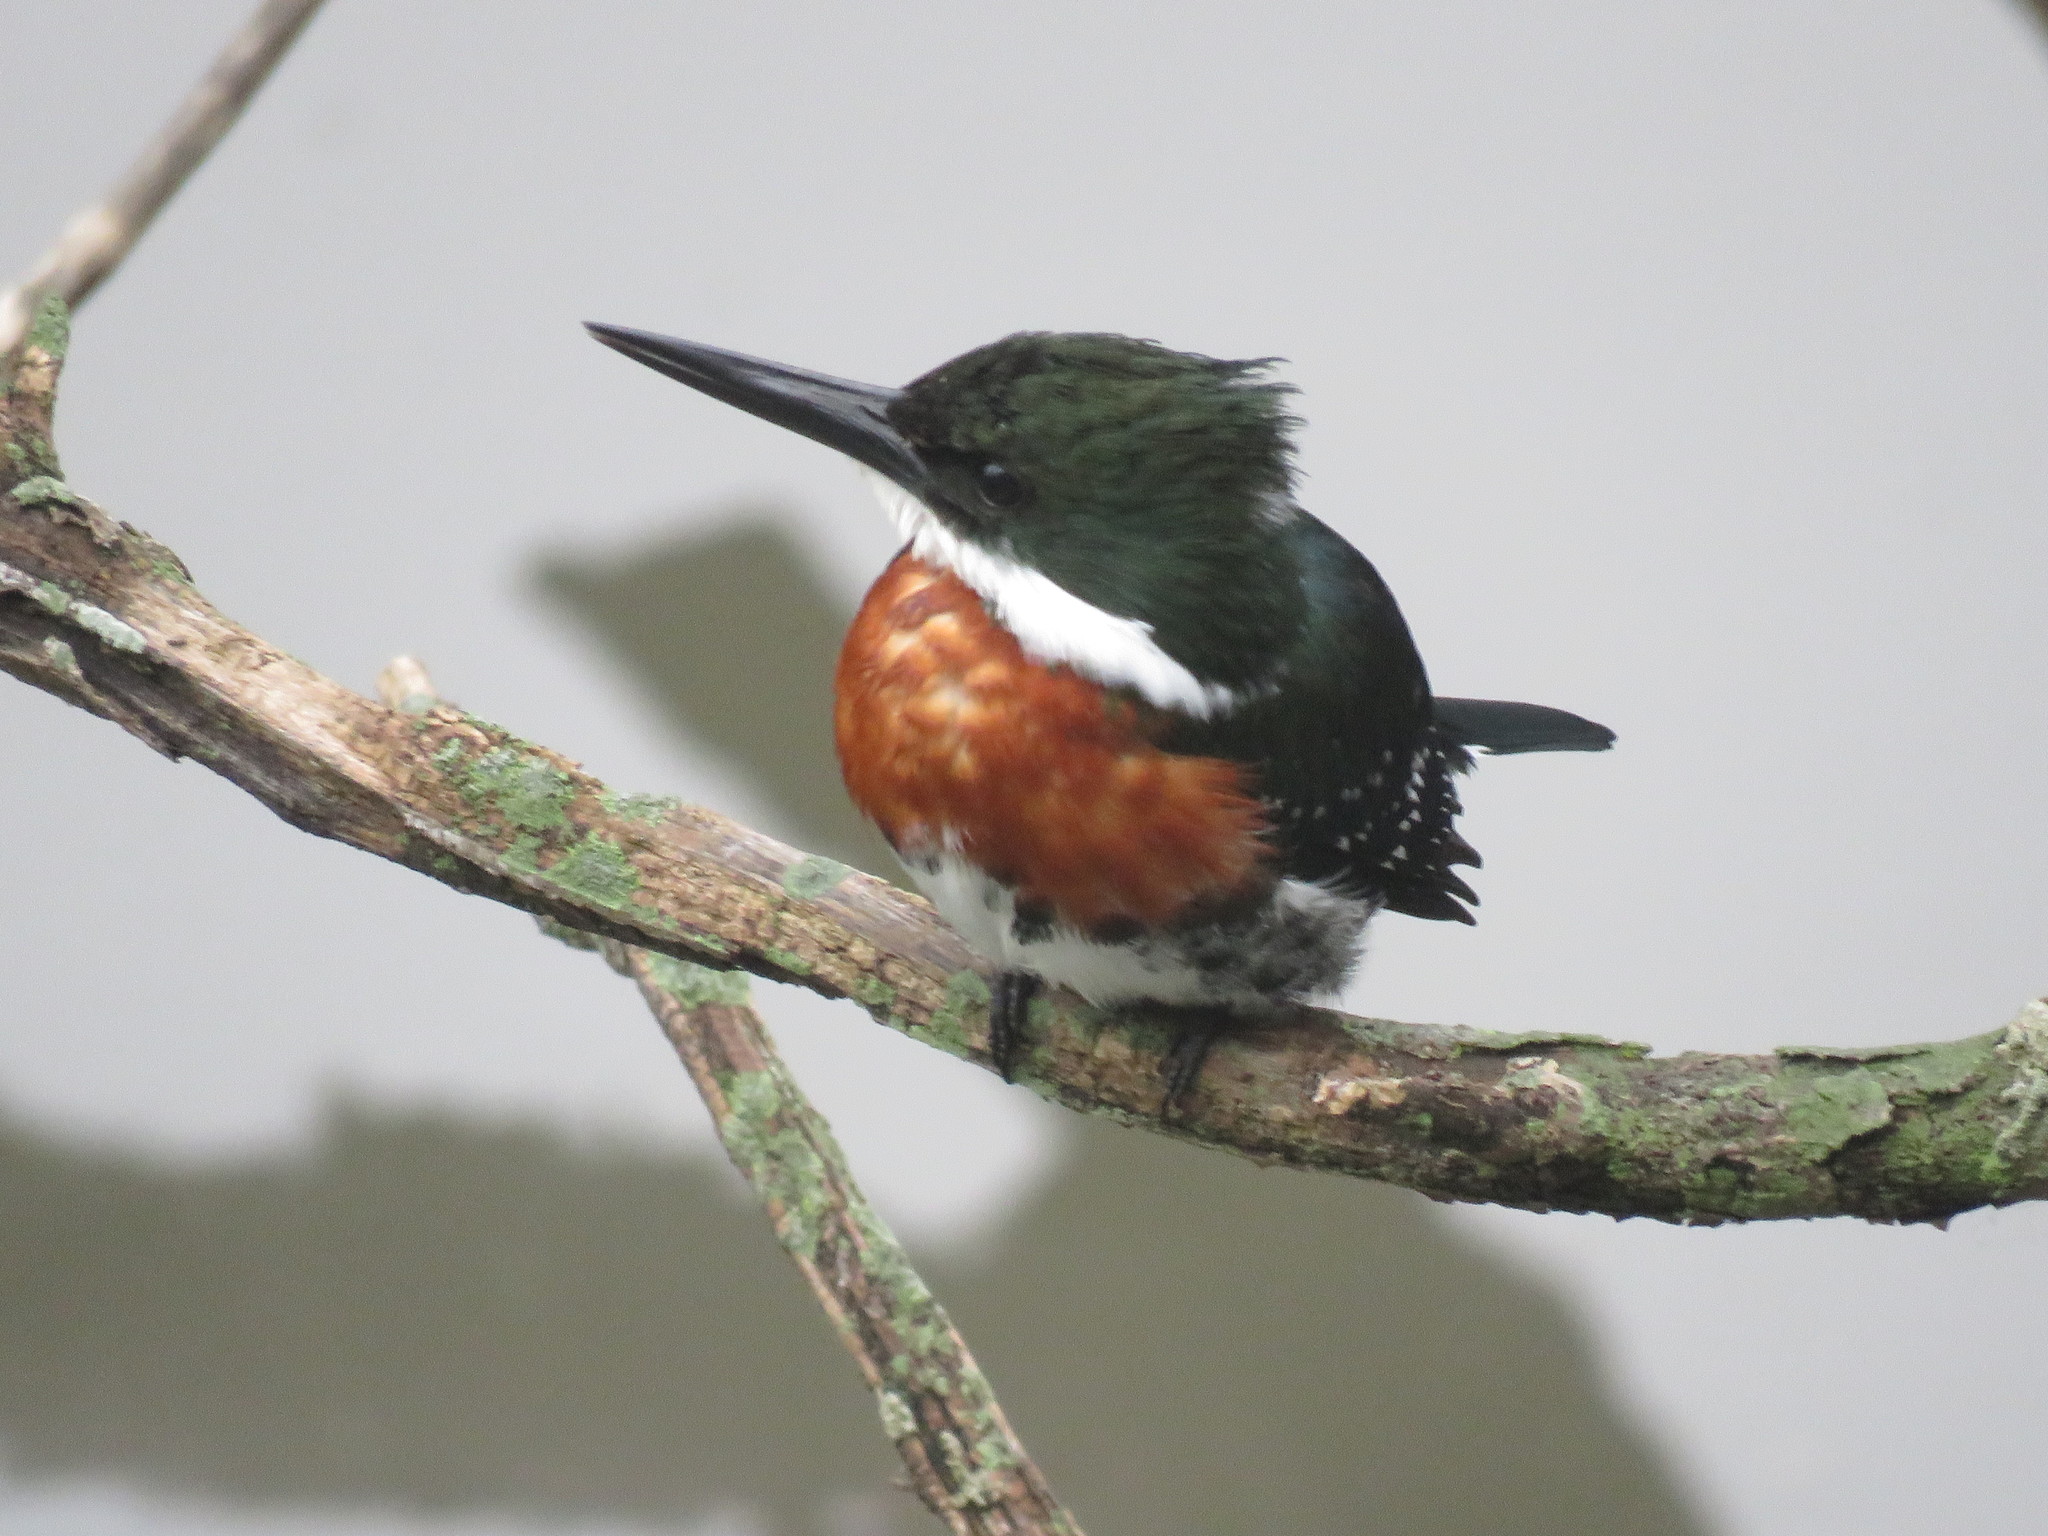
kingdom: Animalia
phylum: Chordata
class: Aves
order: Coraciiformes
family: Alcedinidae
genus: Chloroceryle
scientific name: Chloroceryle americana
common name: Green kingfisher
